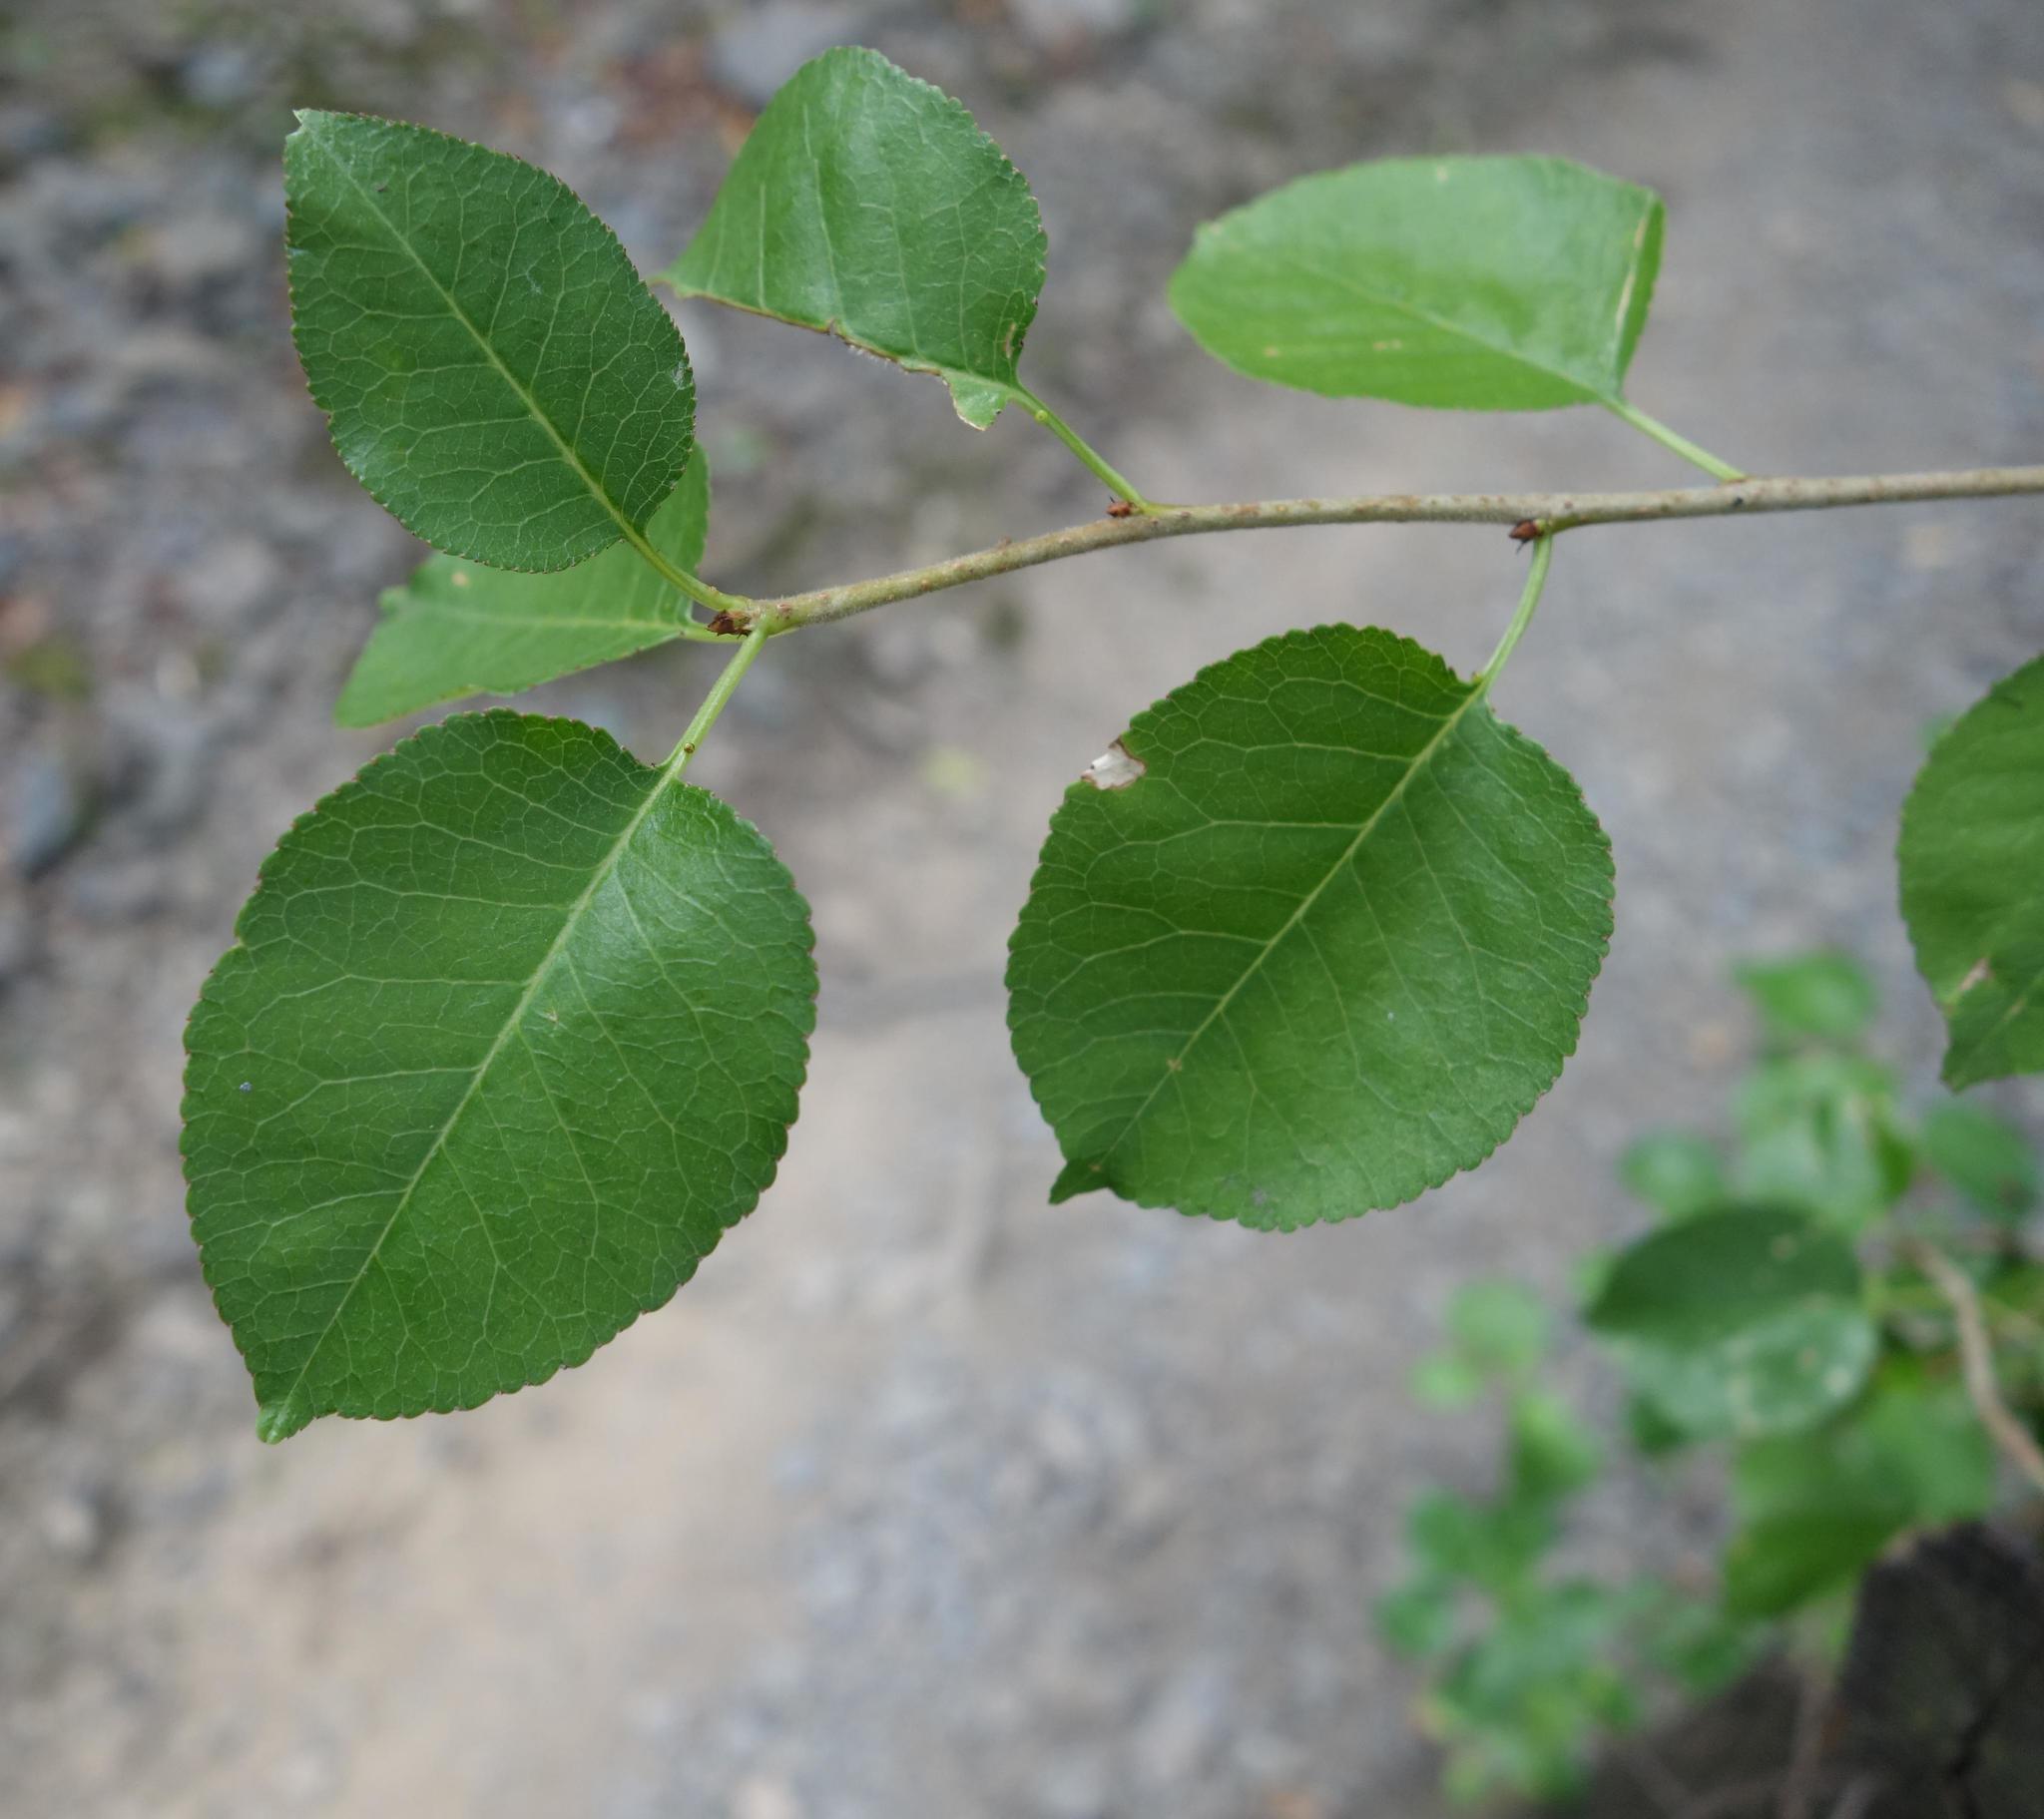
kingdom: Plantae
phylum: Tracheophyta
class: Magnoliopsida
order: Rosales
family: Rosaceae
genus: Prunus
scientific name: Prunus mahaleb
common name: Mahaleb cherry
